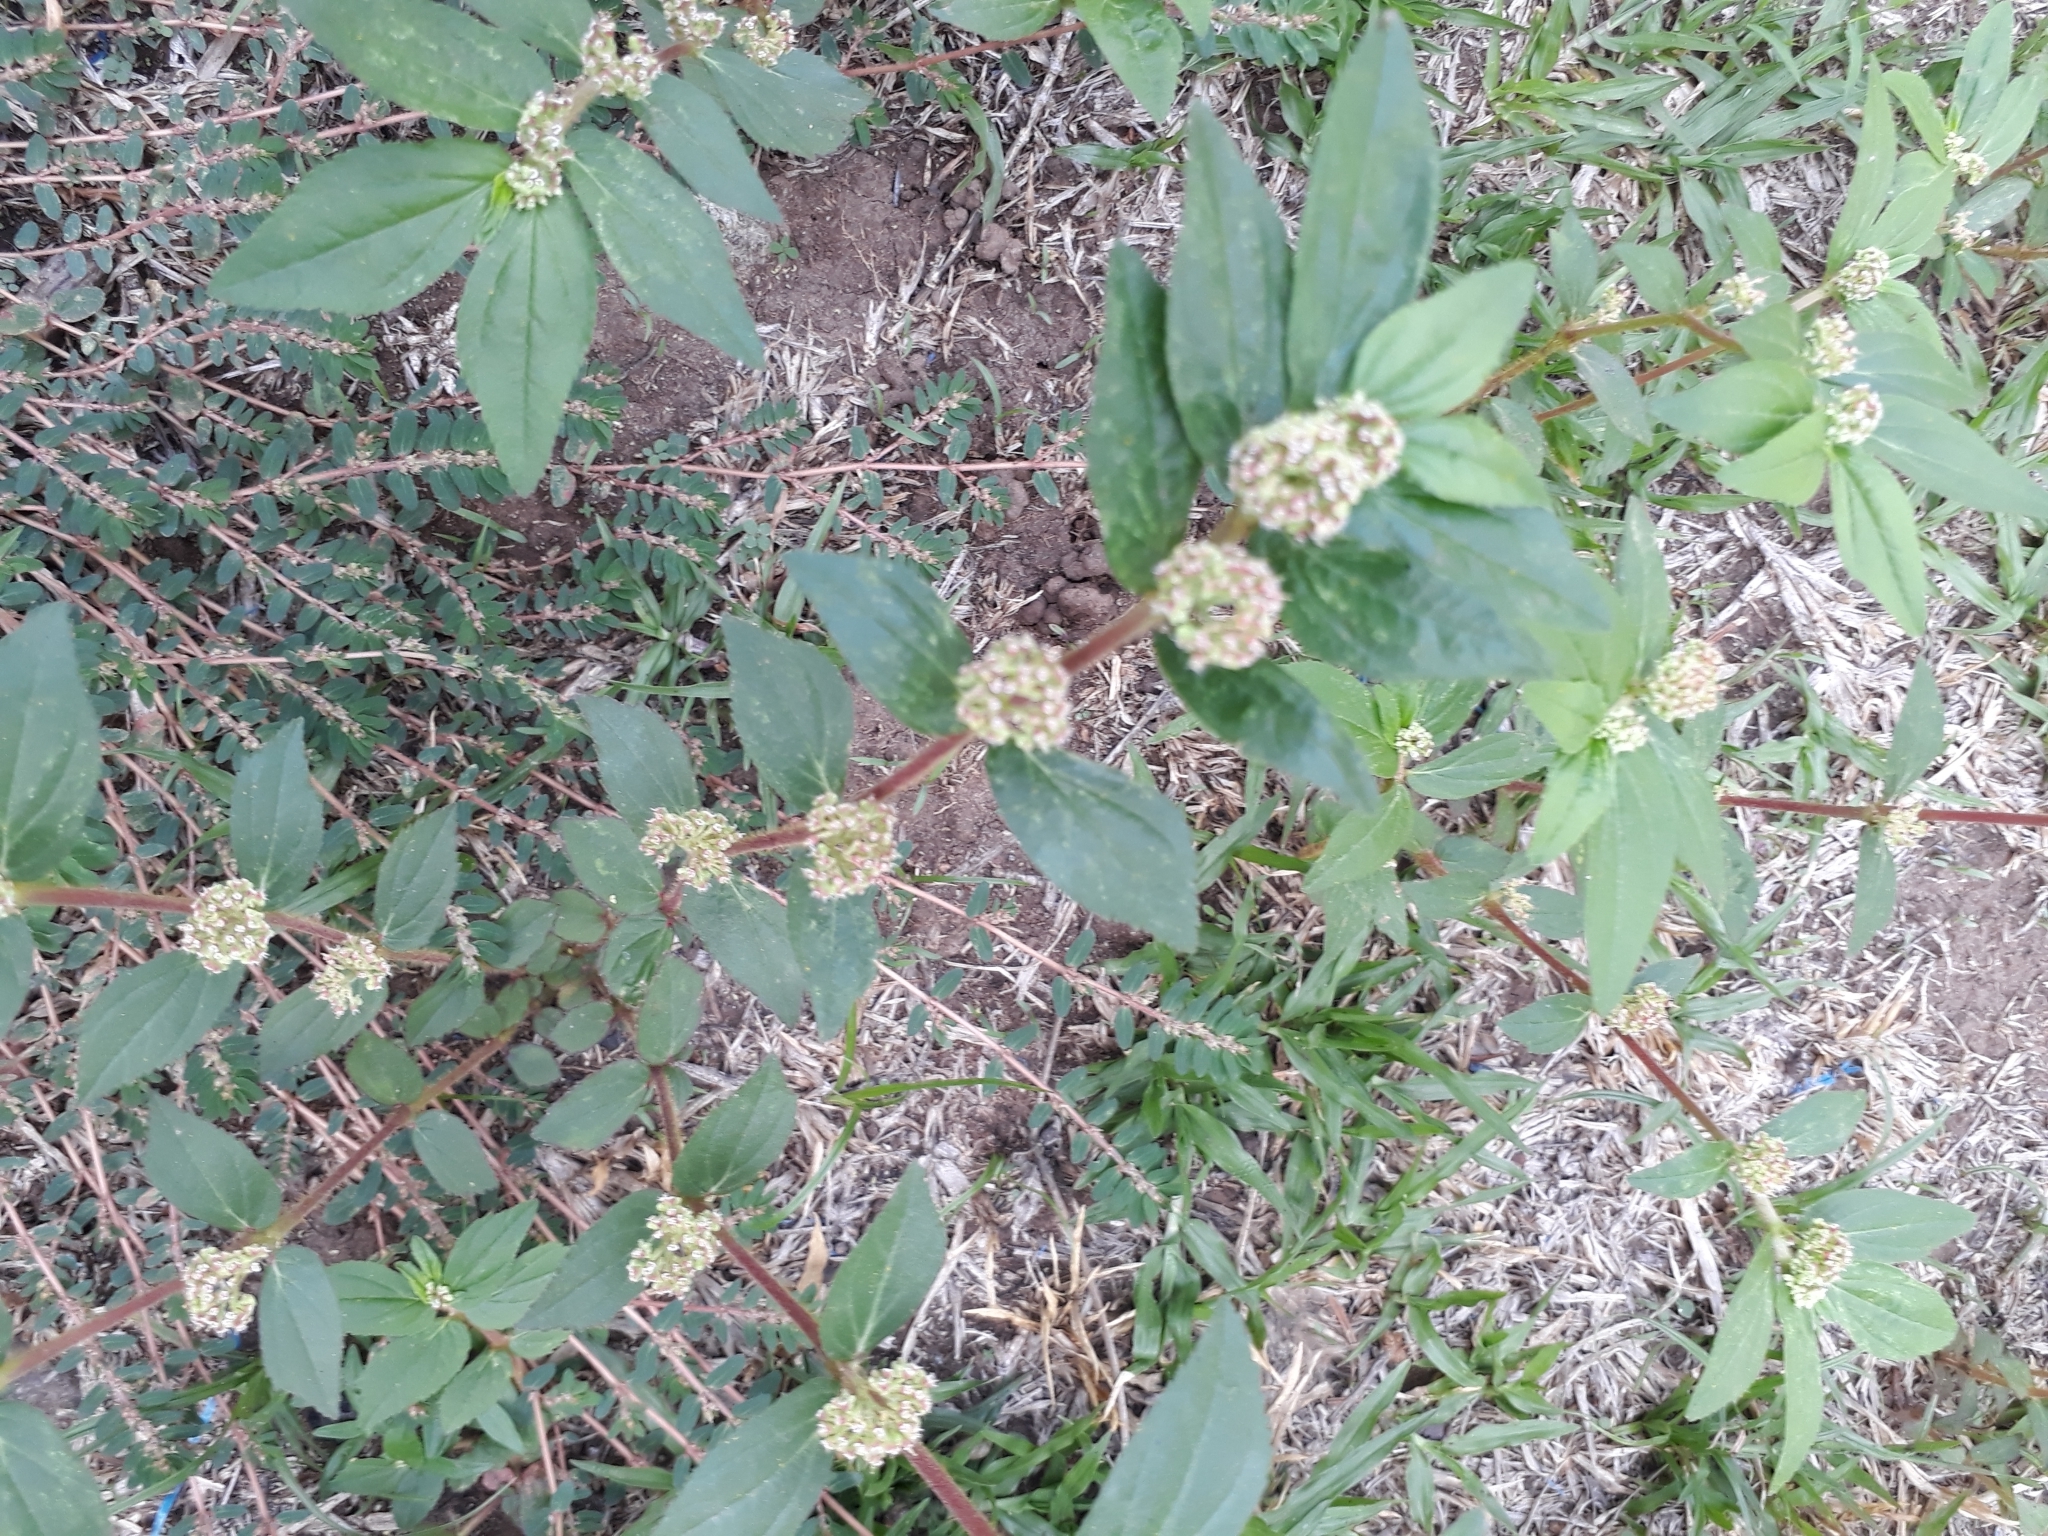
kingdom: Plantae
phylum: Tracheophyta
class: Magnoliopsida
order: Malpighiales
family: Euphorbiaceae
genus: Euphorbia
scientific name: Euphorbia hirta
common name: Pillpod sandmat
